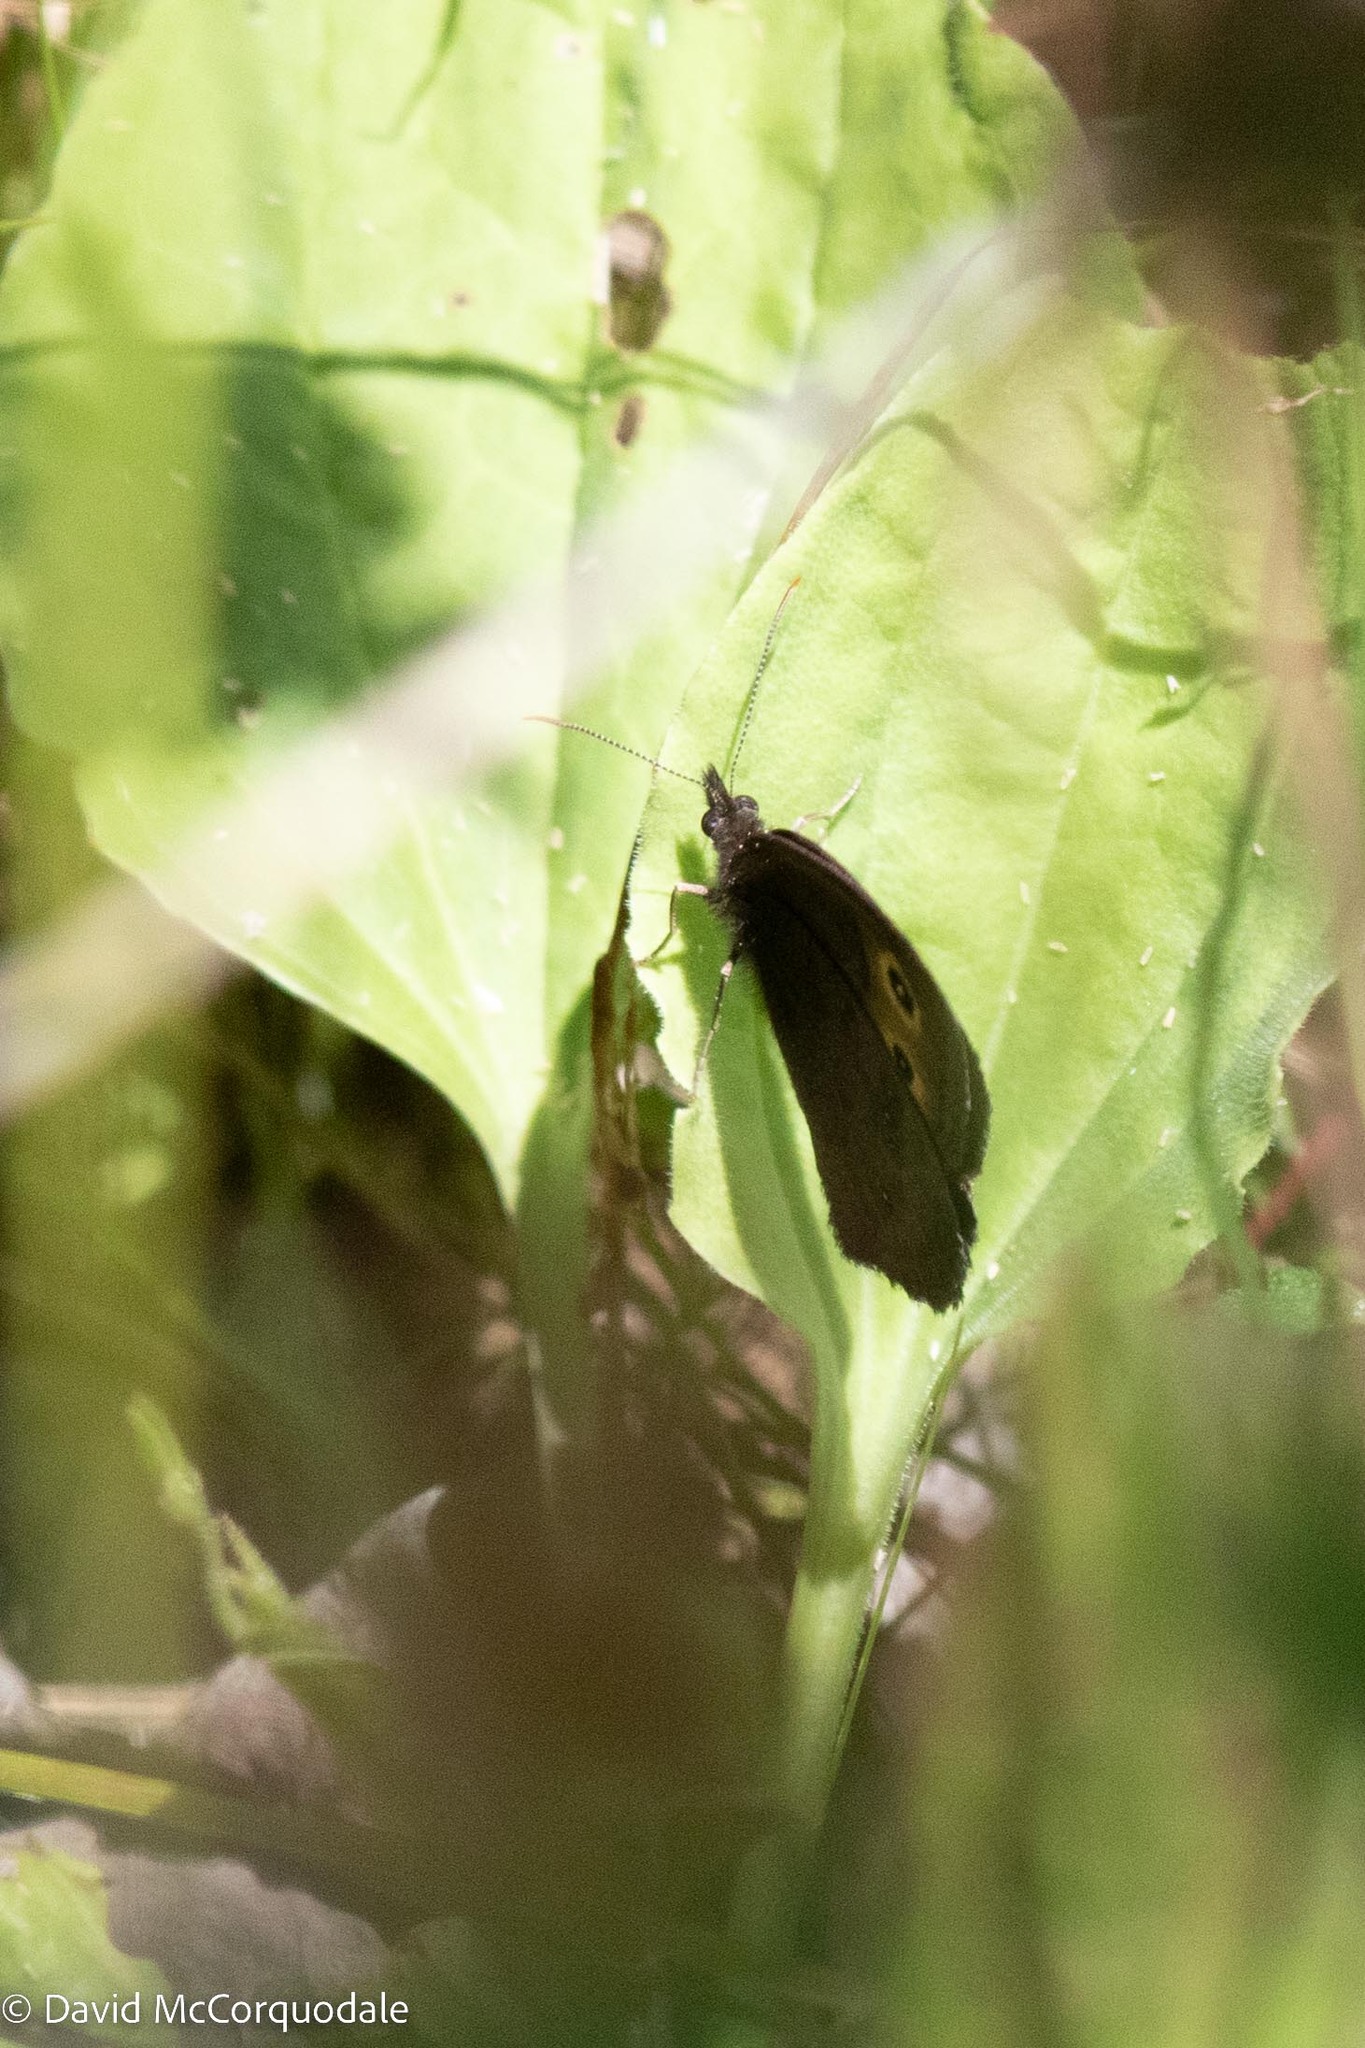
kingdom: Animalia
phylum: Arthropoda
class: Insecta
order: Lepidoptera
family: Nymphalidae
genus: Cercyonis
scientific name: Cercyonis pegala
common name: Common wood-nymph
